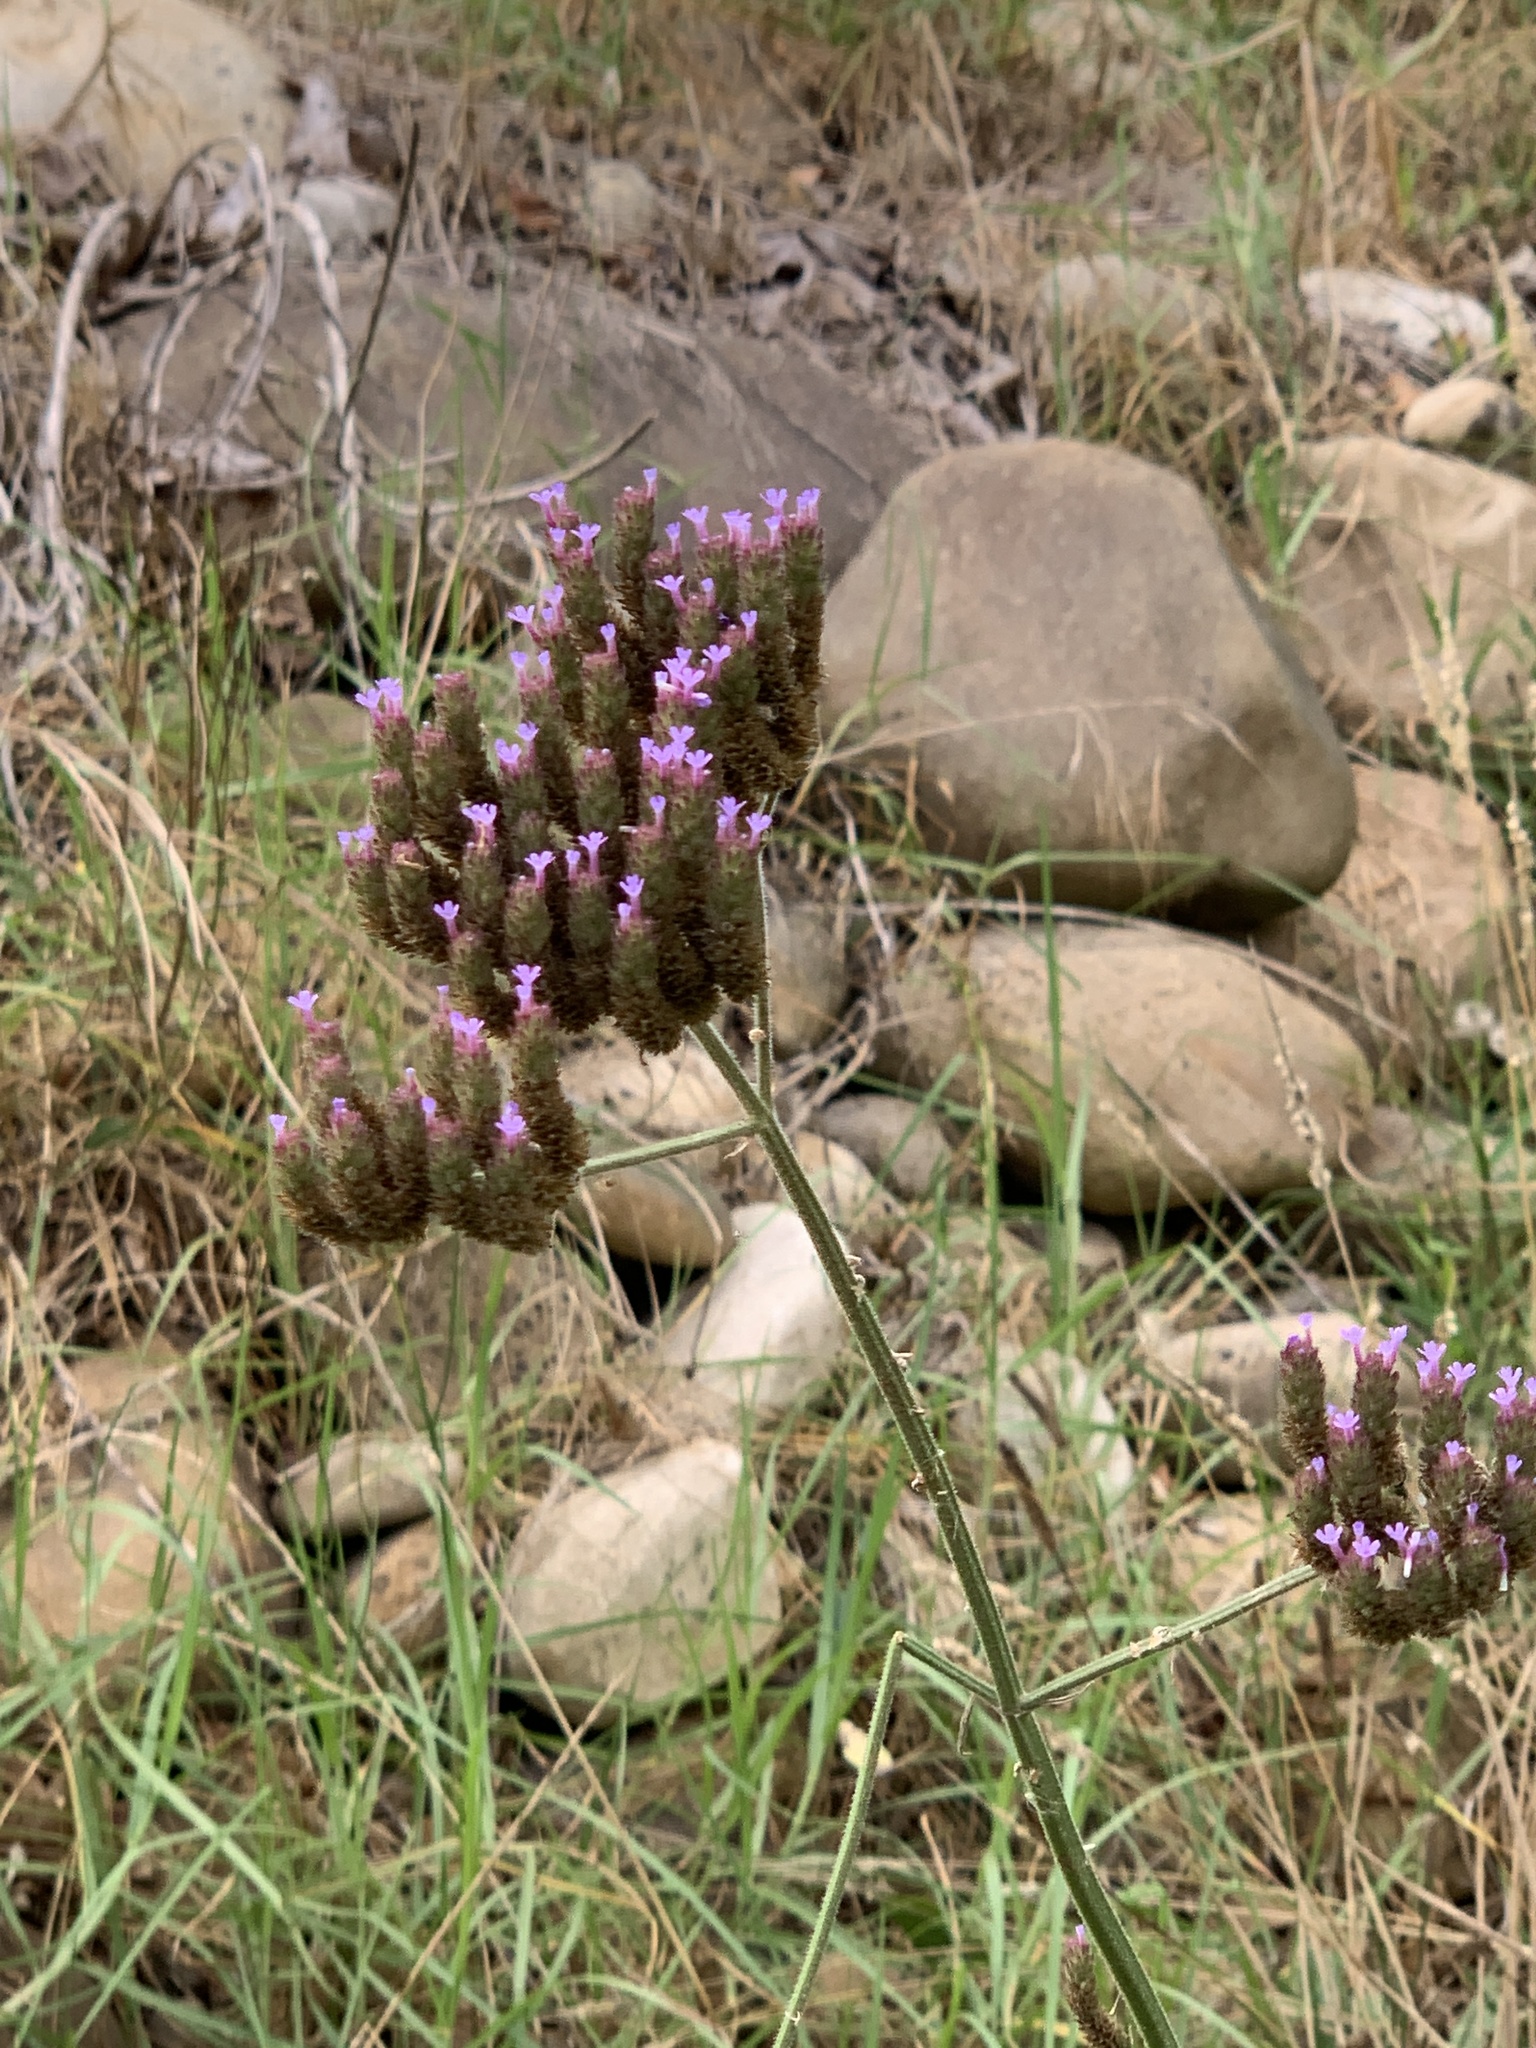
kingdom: Plantae
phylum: Tracheophyta
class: Magnoliopsida
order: Lamiales
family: Verbenaceae
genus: Verbena
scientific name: Verbena bonariensis
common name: Purpletop vervain
